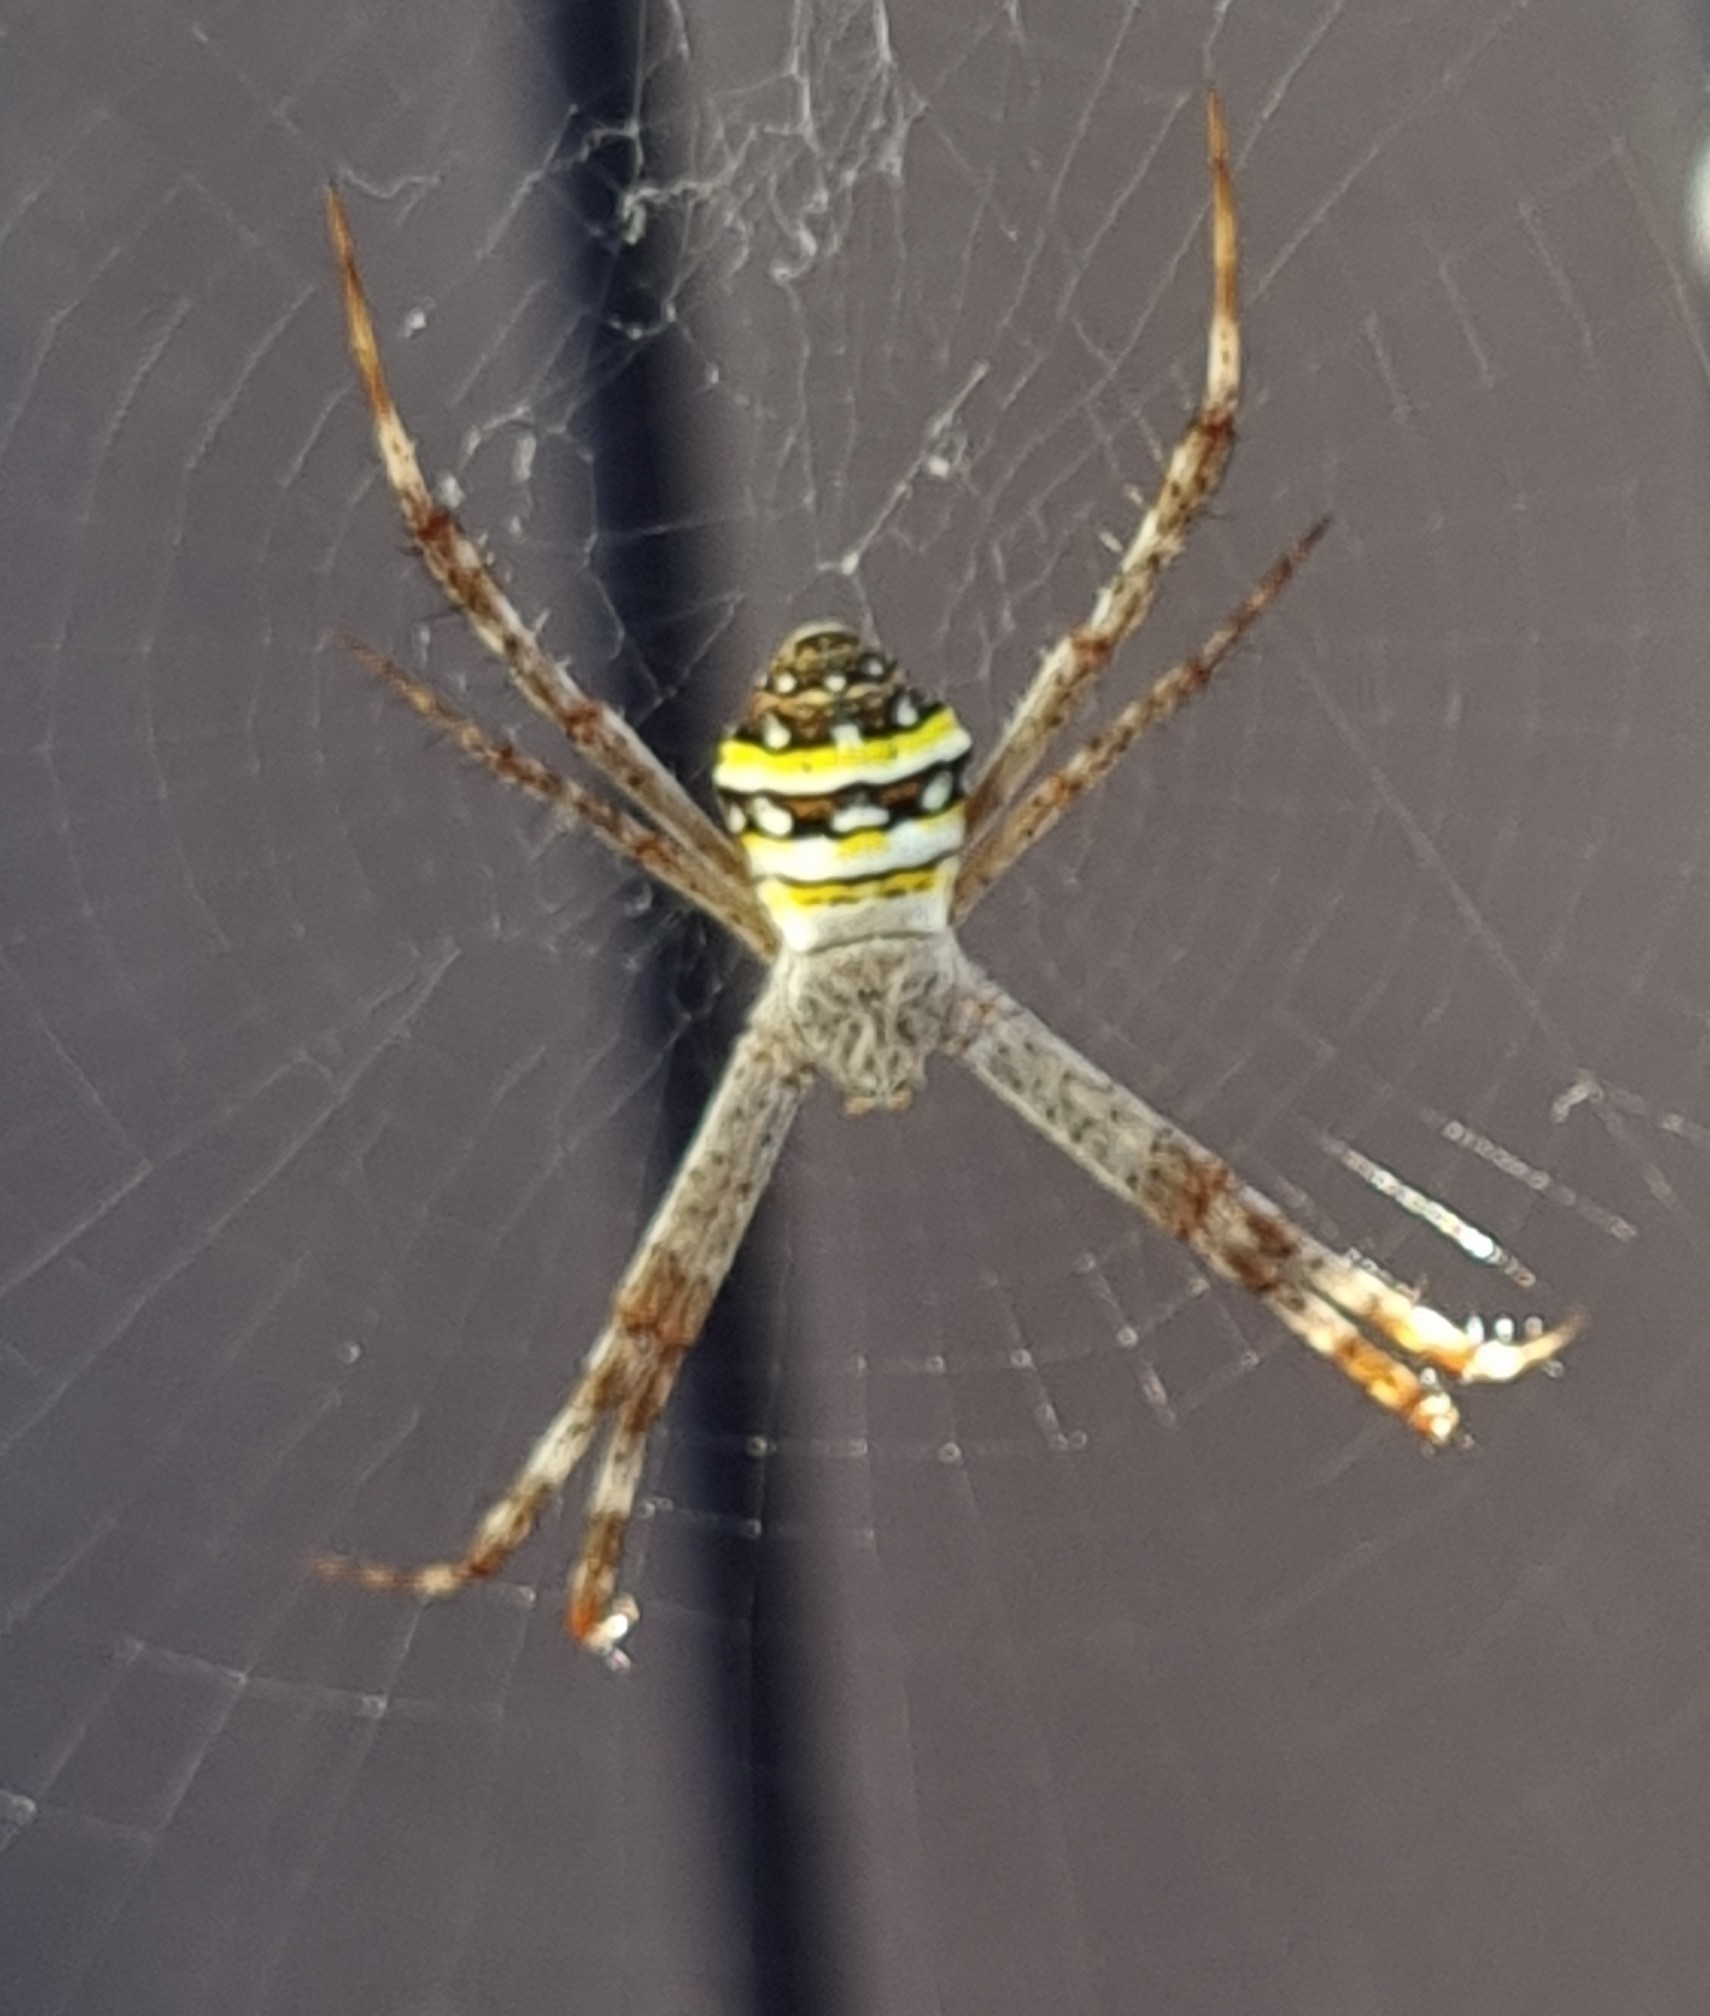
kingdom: Animalia
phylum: Arthropoda
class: Arachnida
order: Araneae
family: Araneidae
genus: Argiope
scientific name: Argiope aetherea
